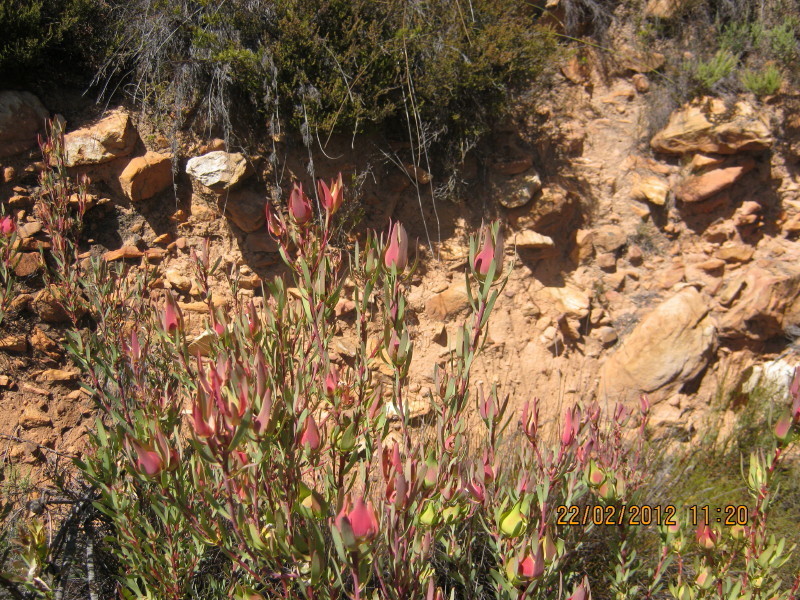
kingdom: Plantae
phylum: Tracheophyta
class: Magnoliopsida
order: Proteales
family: Proteaceae
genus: Leucadendron
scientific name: Leucadendron salignum
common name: Common sunshine conebush
